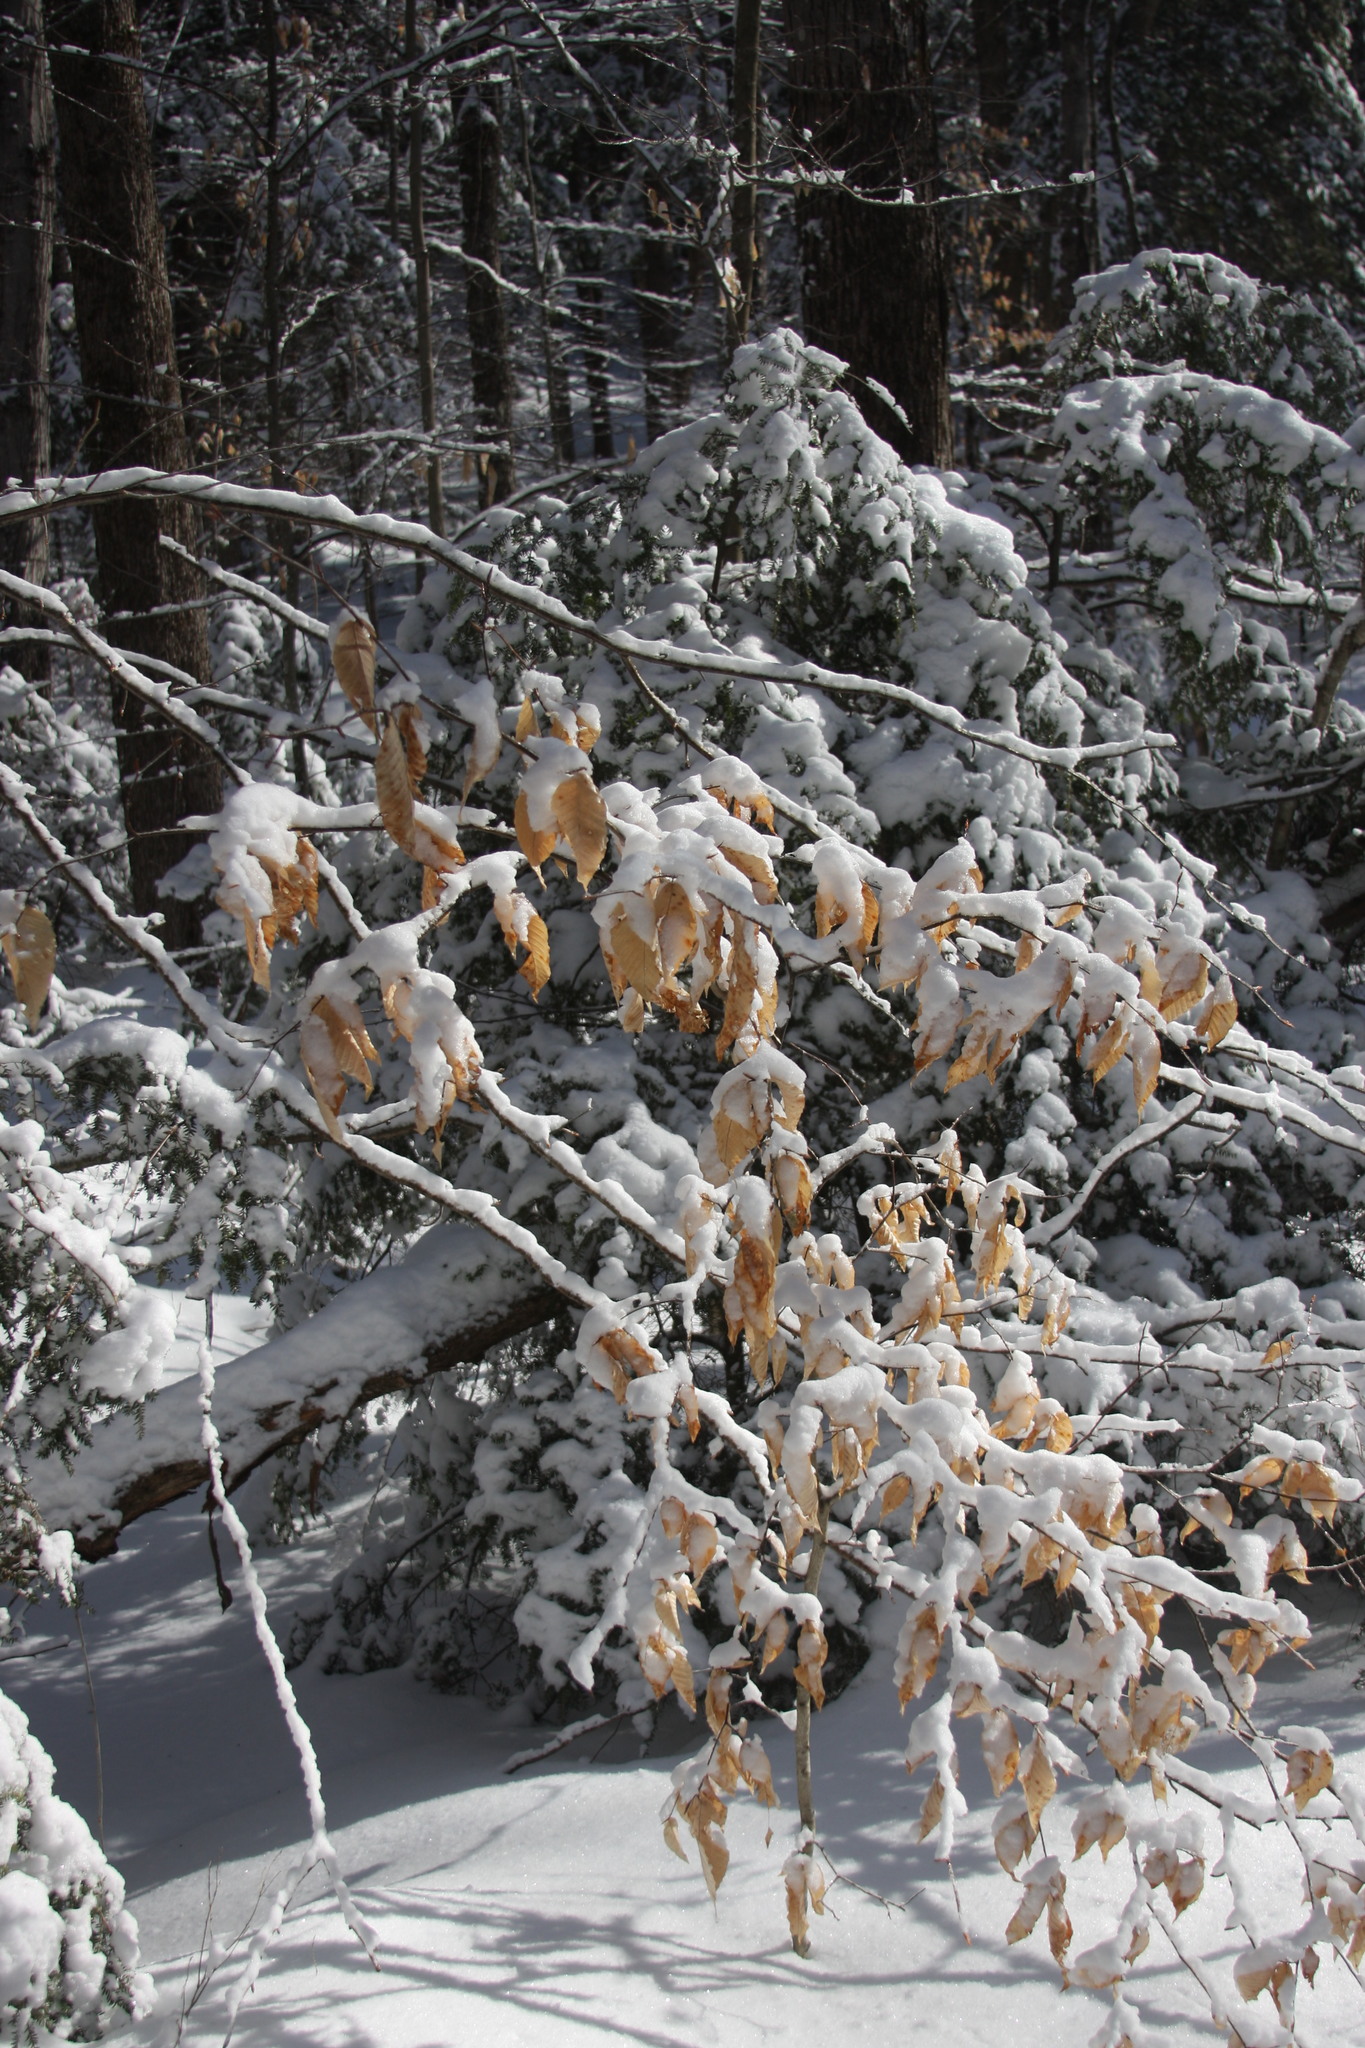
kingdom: Plantae
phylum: Tracheophyta
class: Magnoliopsida
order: Fagales
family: Fagaceae
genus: Fagus
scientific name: Fagus grandifolia
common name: American beech
